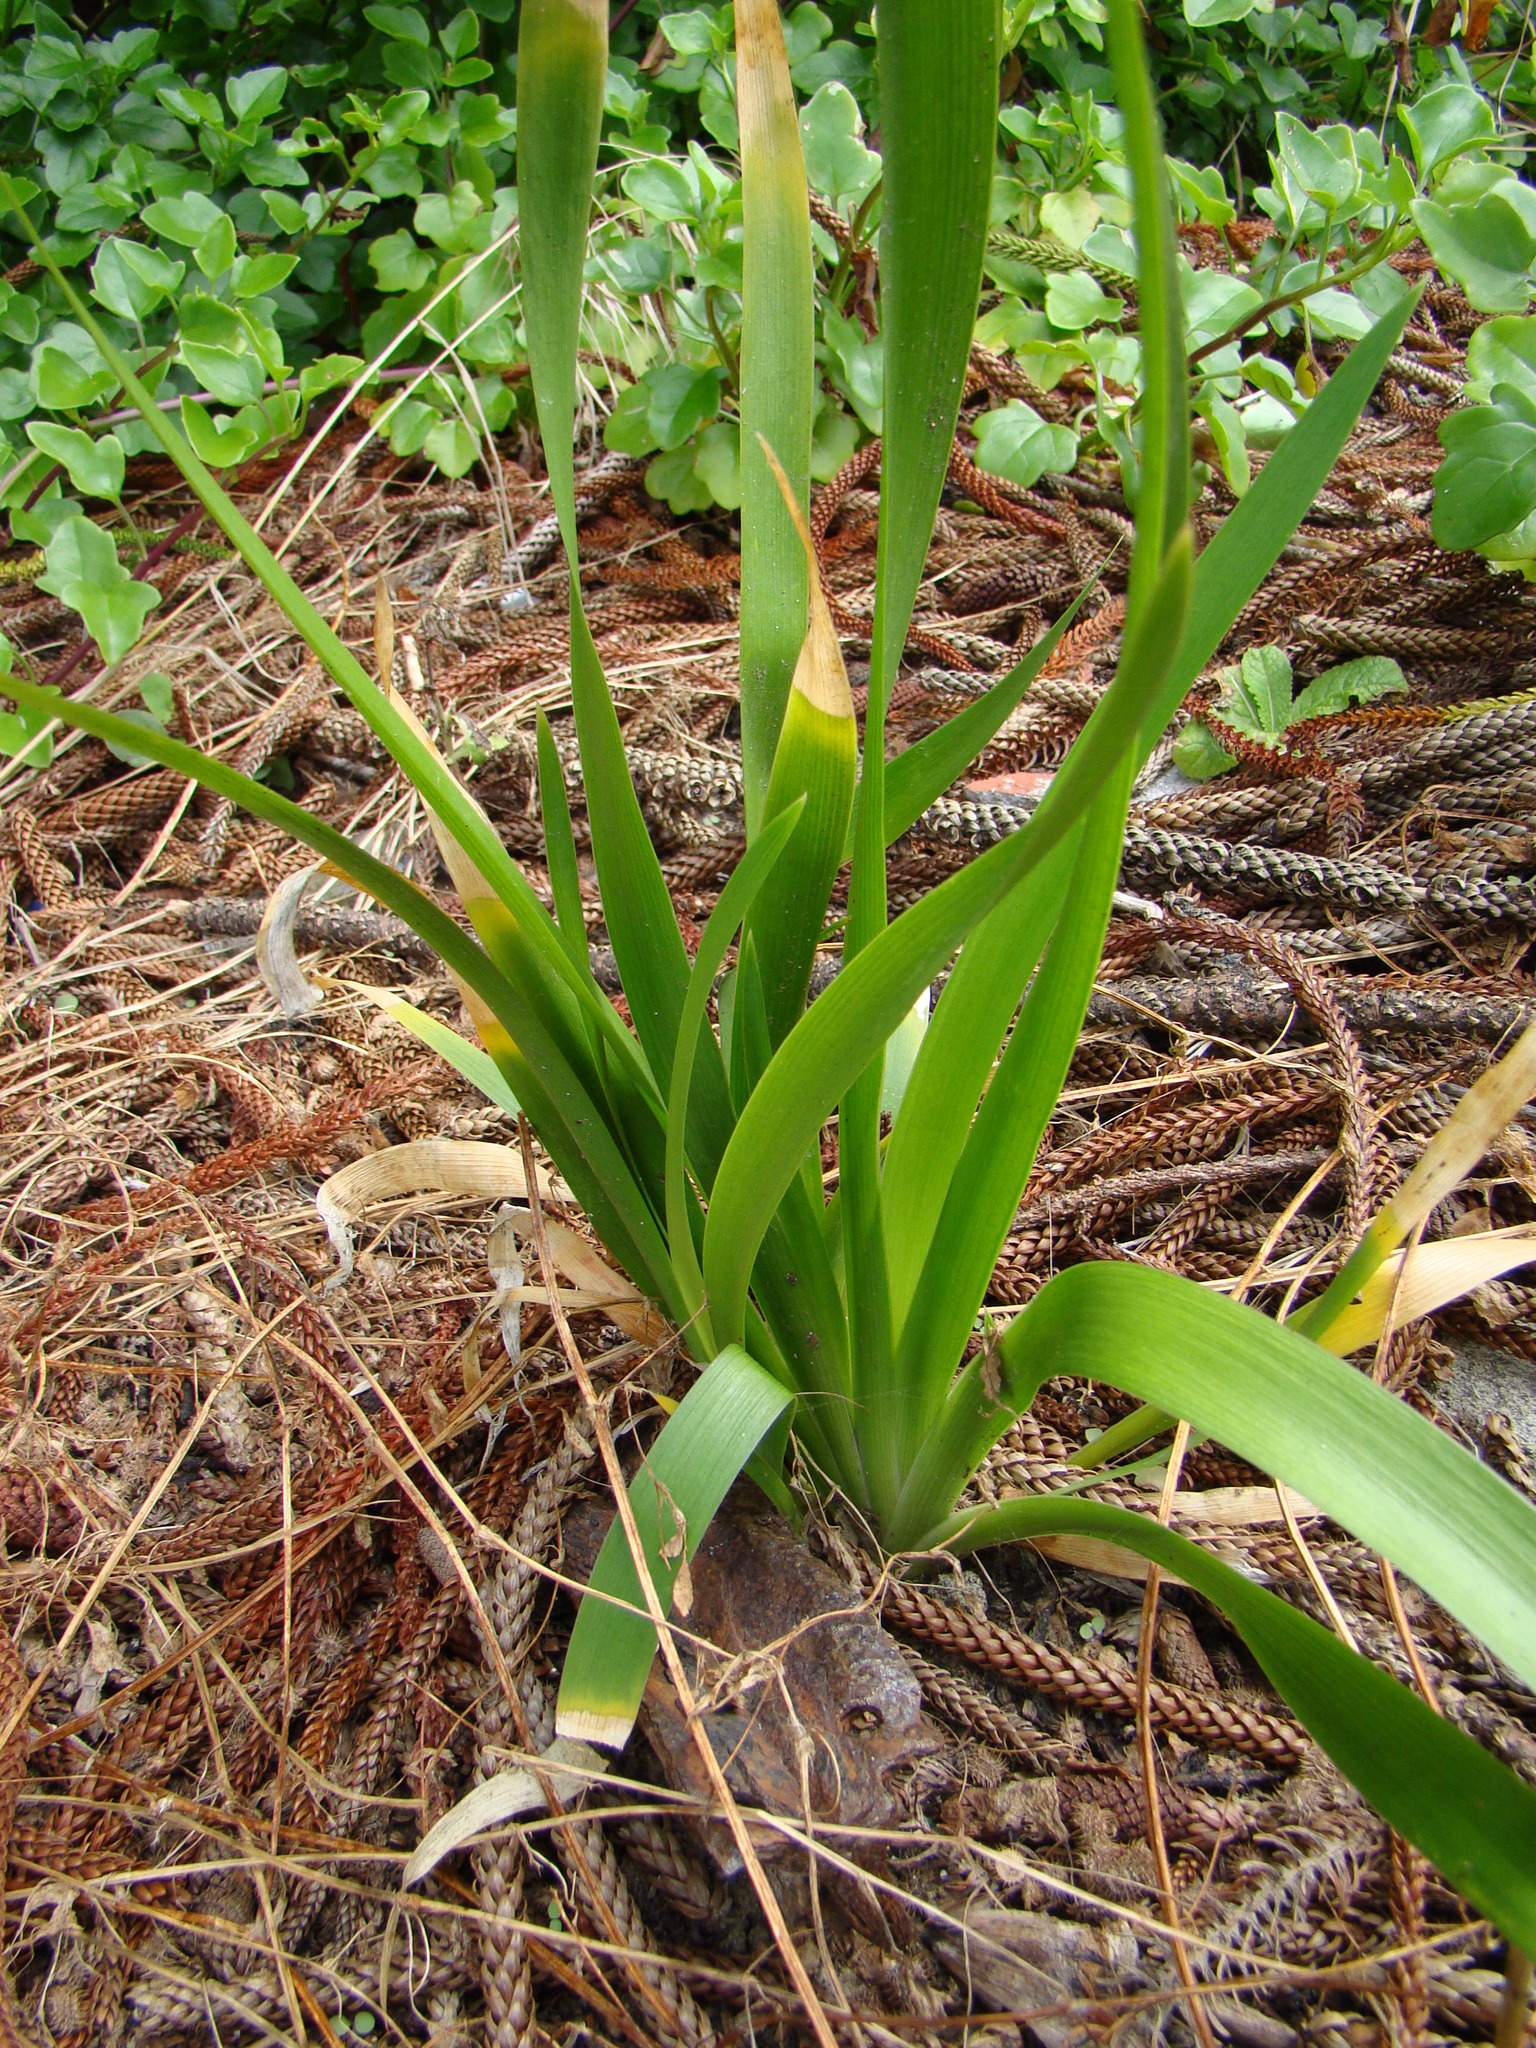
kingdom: Plantae
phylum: Tracheophyta
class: Liliopsida
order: Asparagales
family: Iridaceae
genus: Iris
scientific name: Iris foetidissima
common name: Stinking iris
